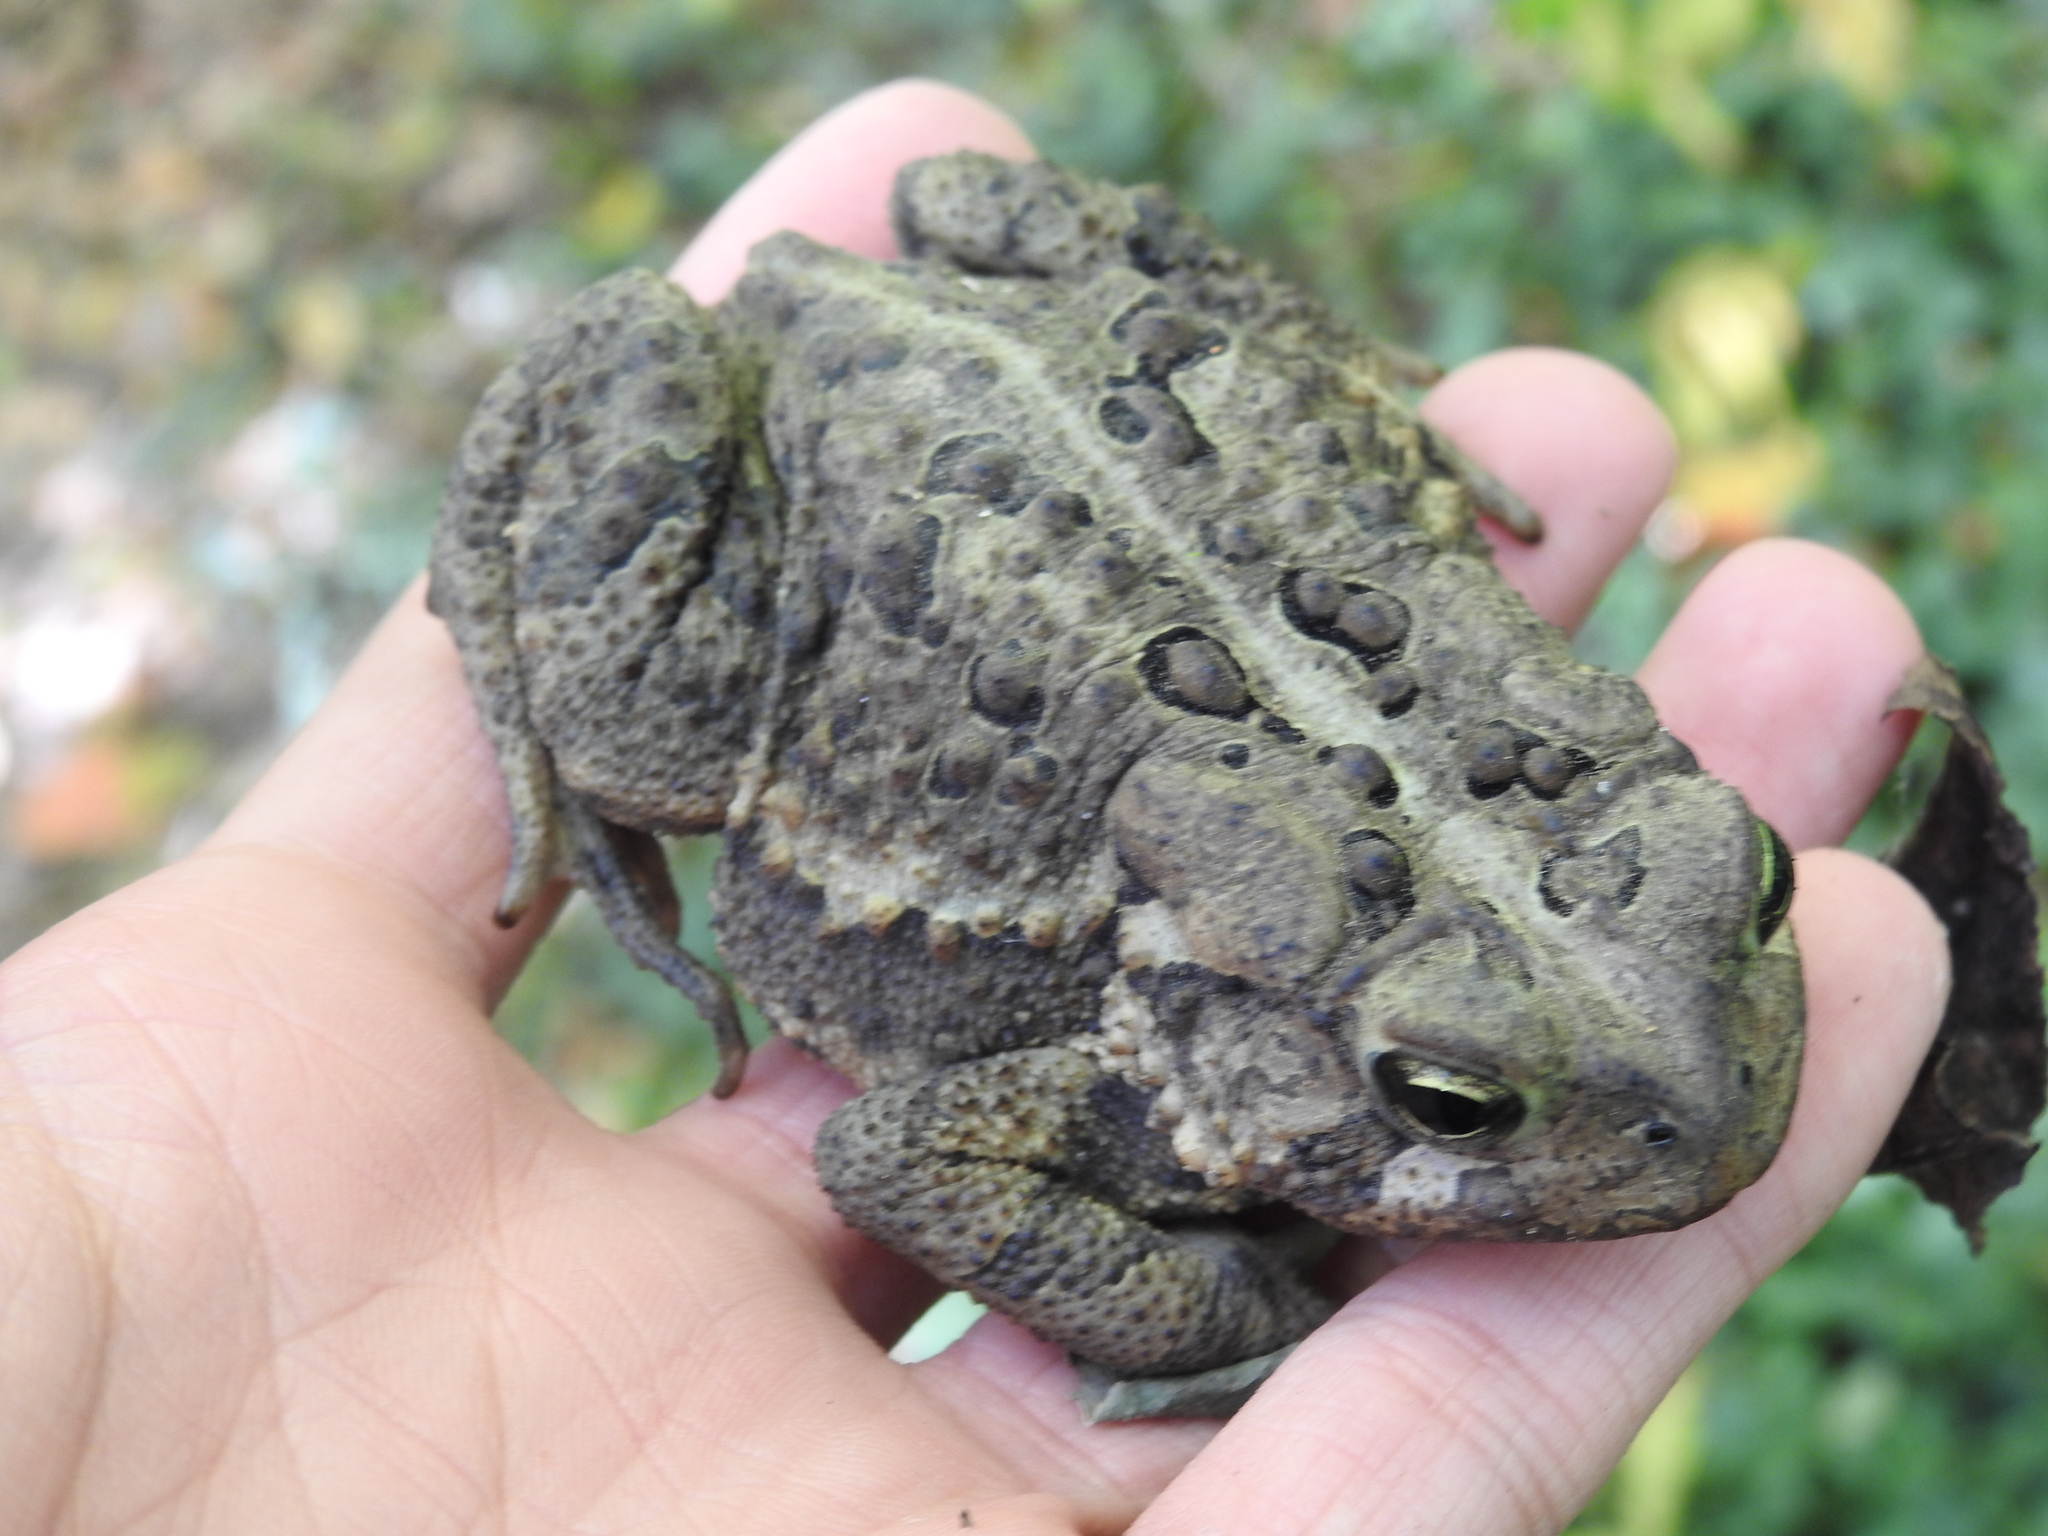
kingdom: Animalia
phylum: Chordata
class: Amphibia
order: Anura
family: Bufonidae
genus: Anaxyrus
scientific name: Anaxyrus americanus
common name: American toad
